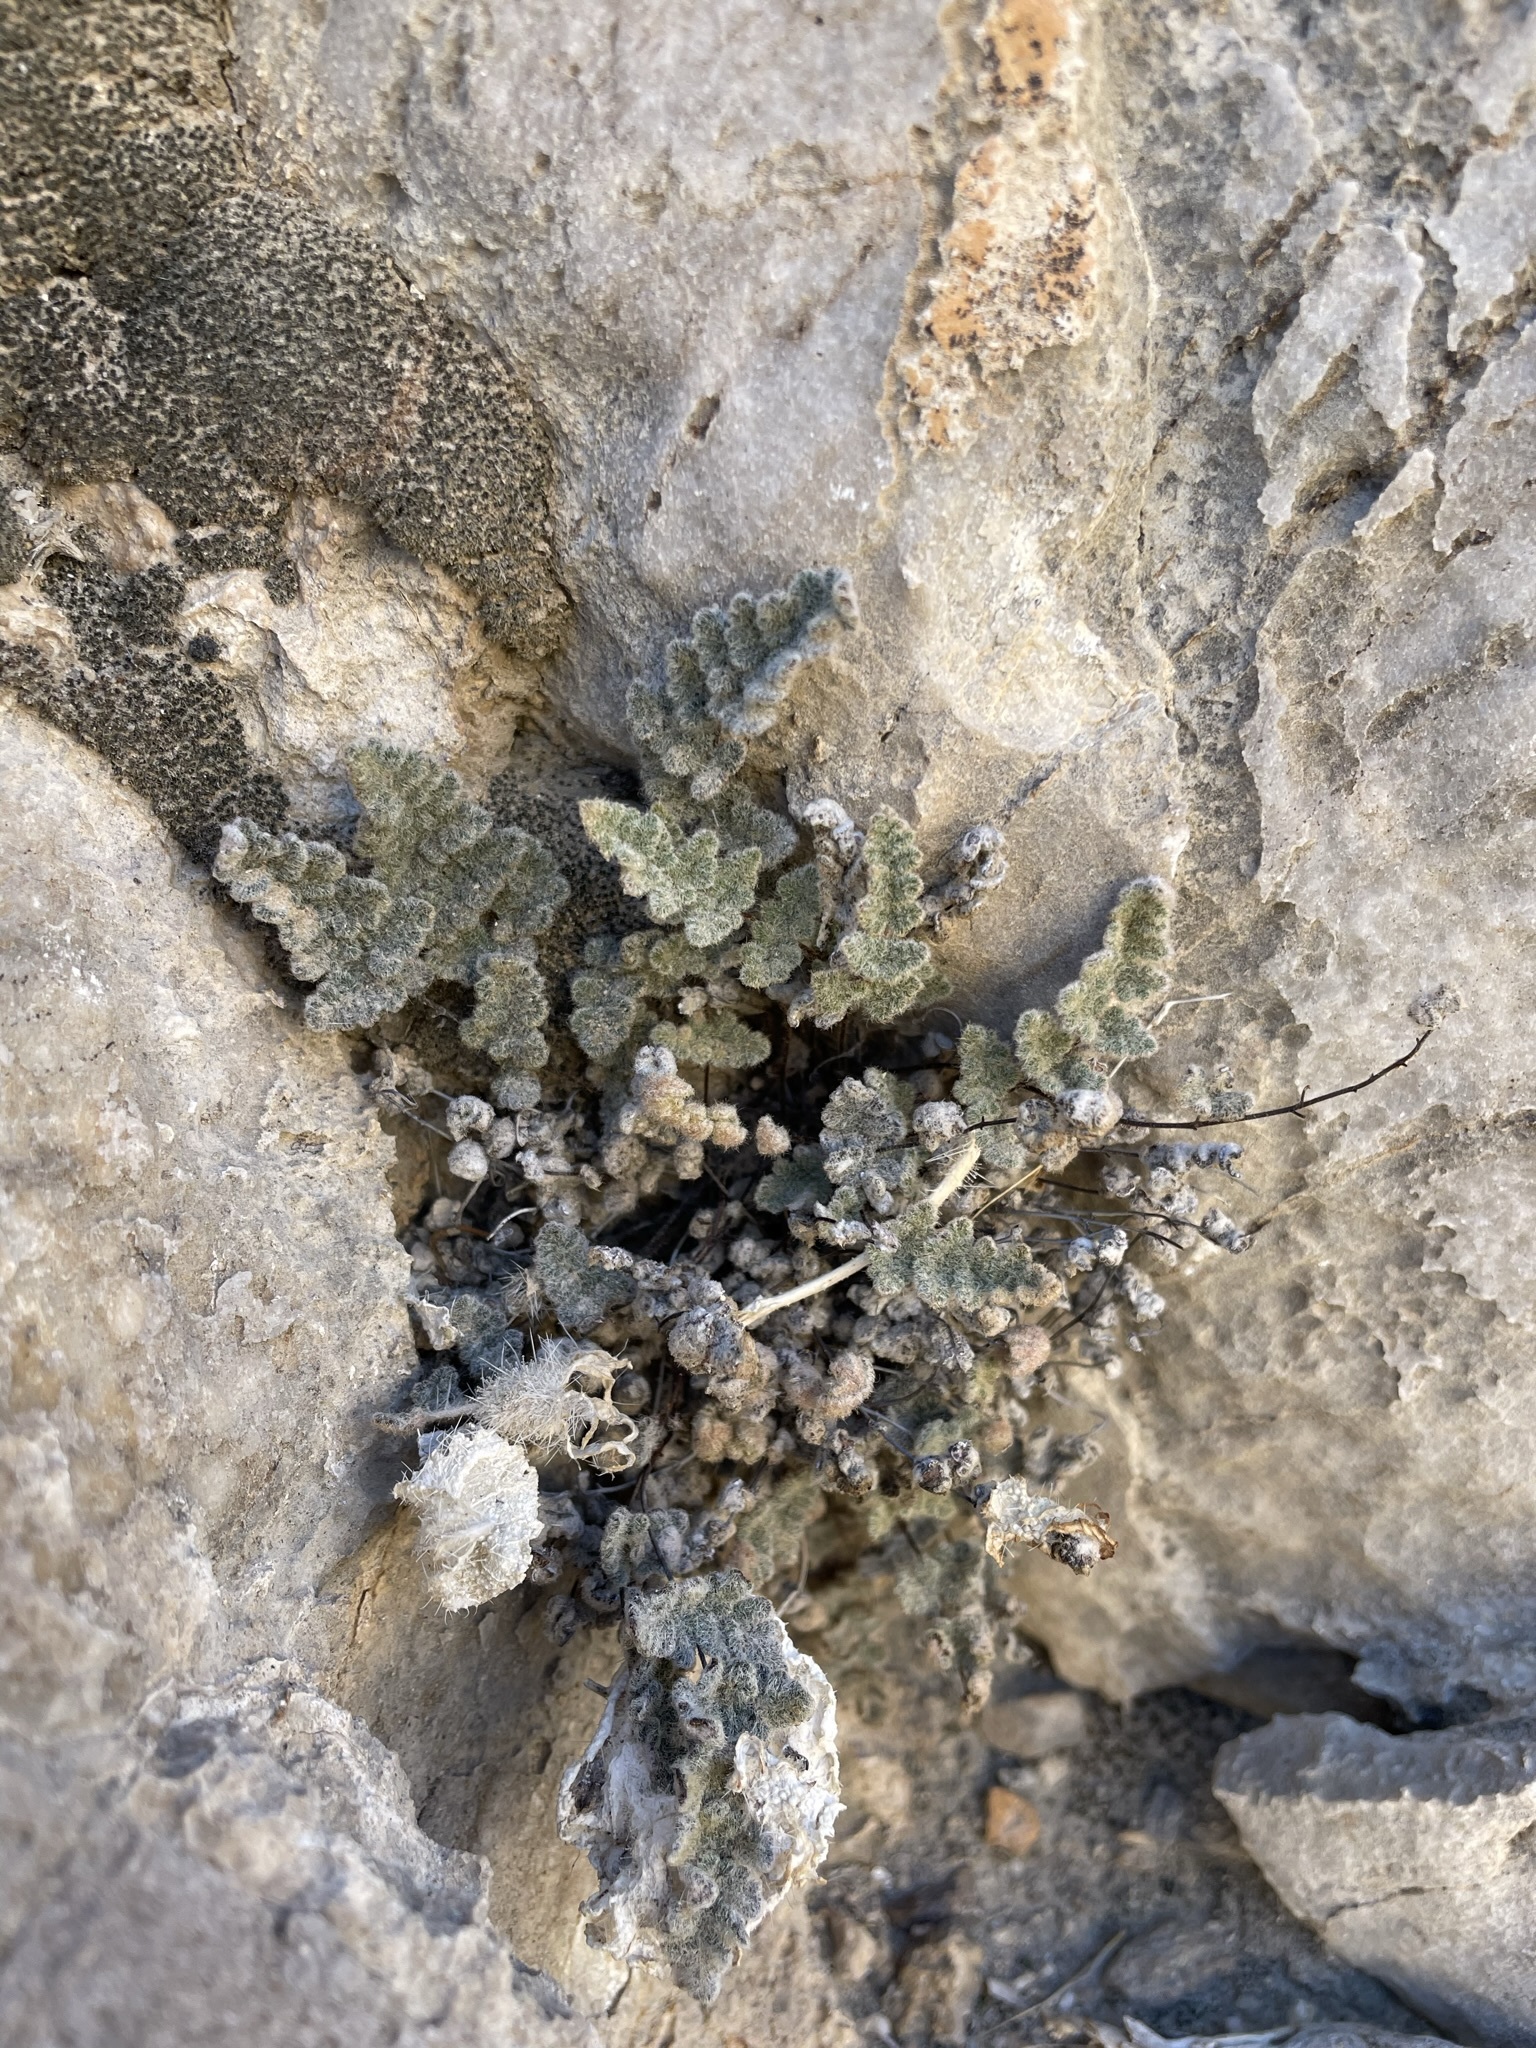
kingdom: Plantae
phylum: Tracheophyta
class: Polypodiopsida
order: Polypodiales
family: Pteridaceae
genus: Myriopteris
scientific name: Myriopteris parryi
